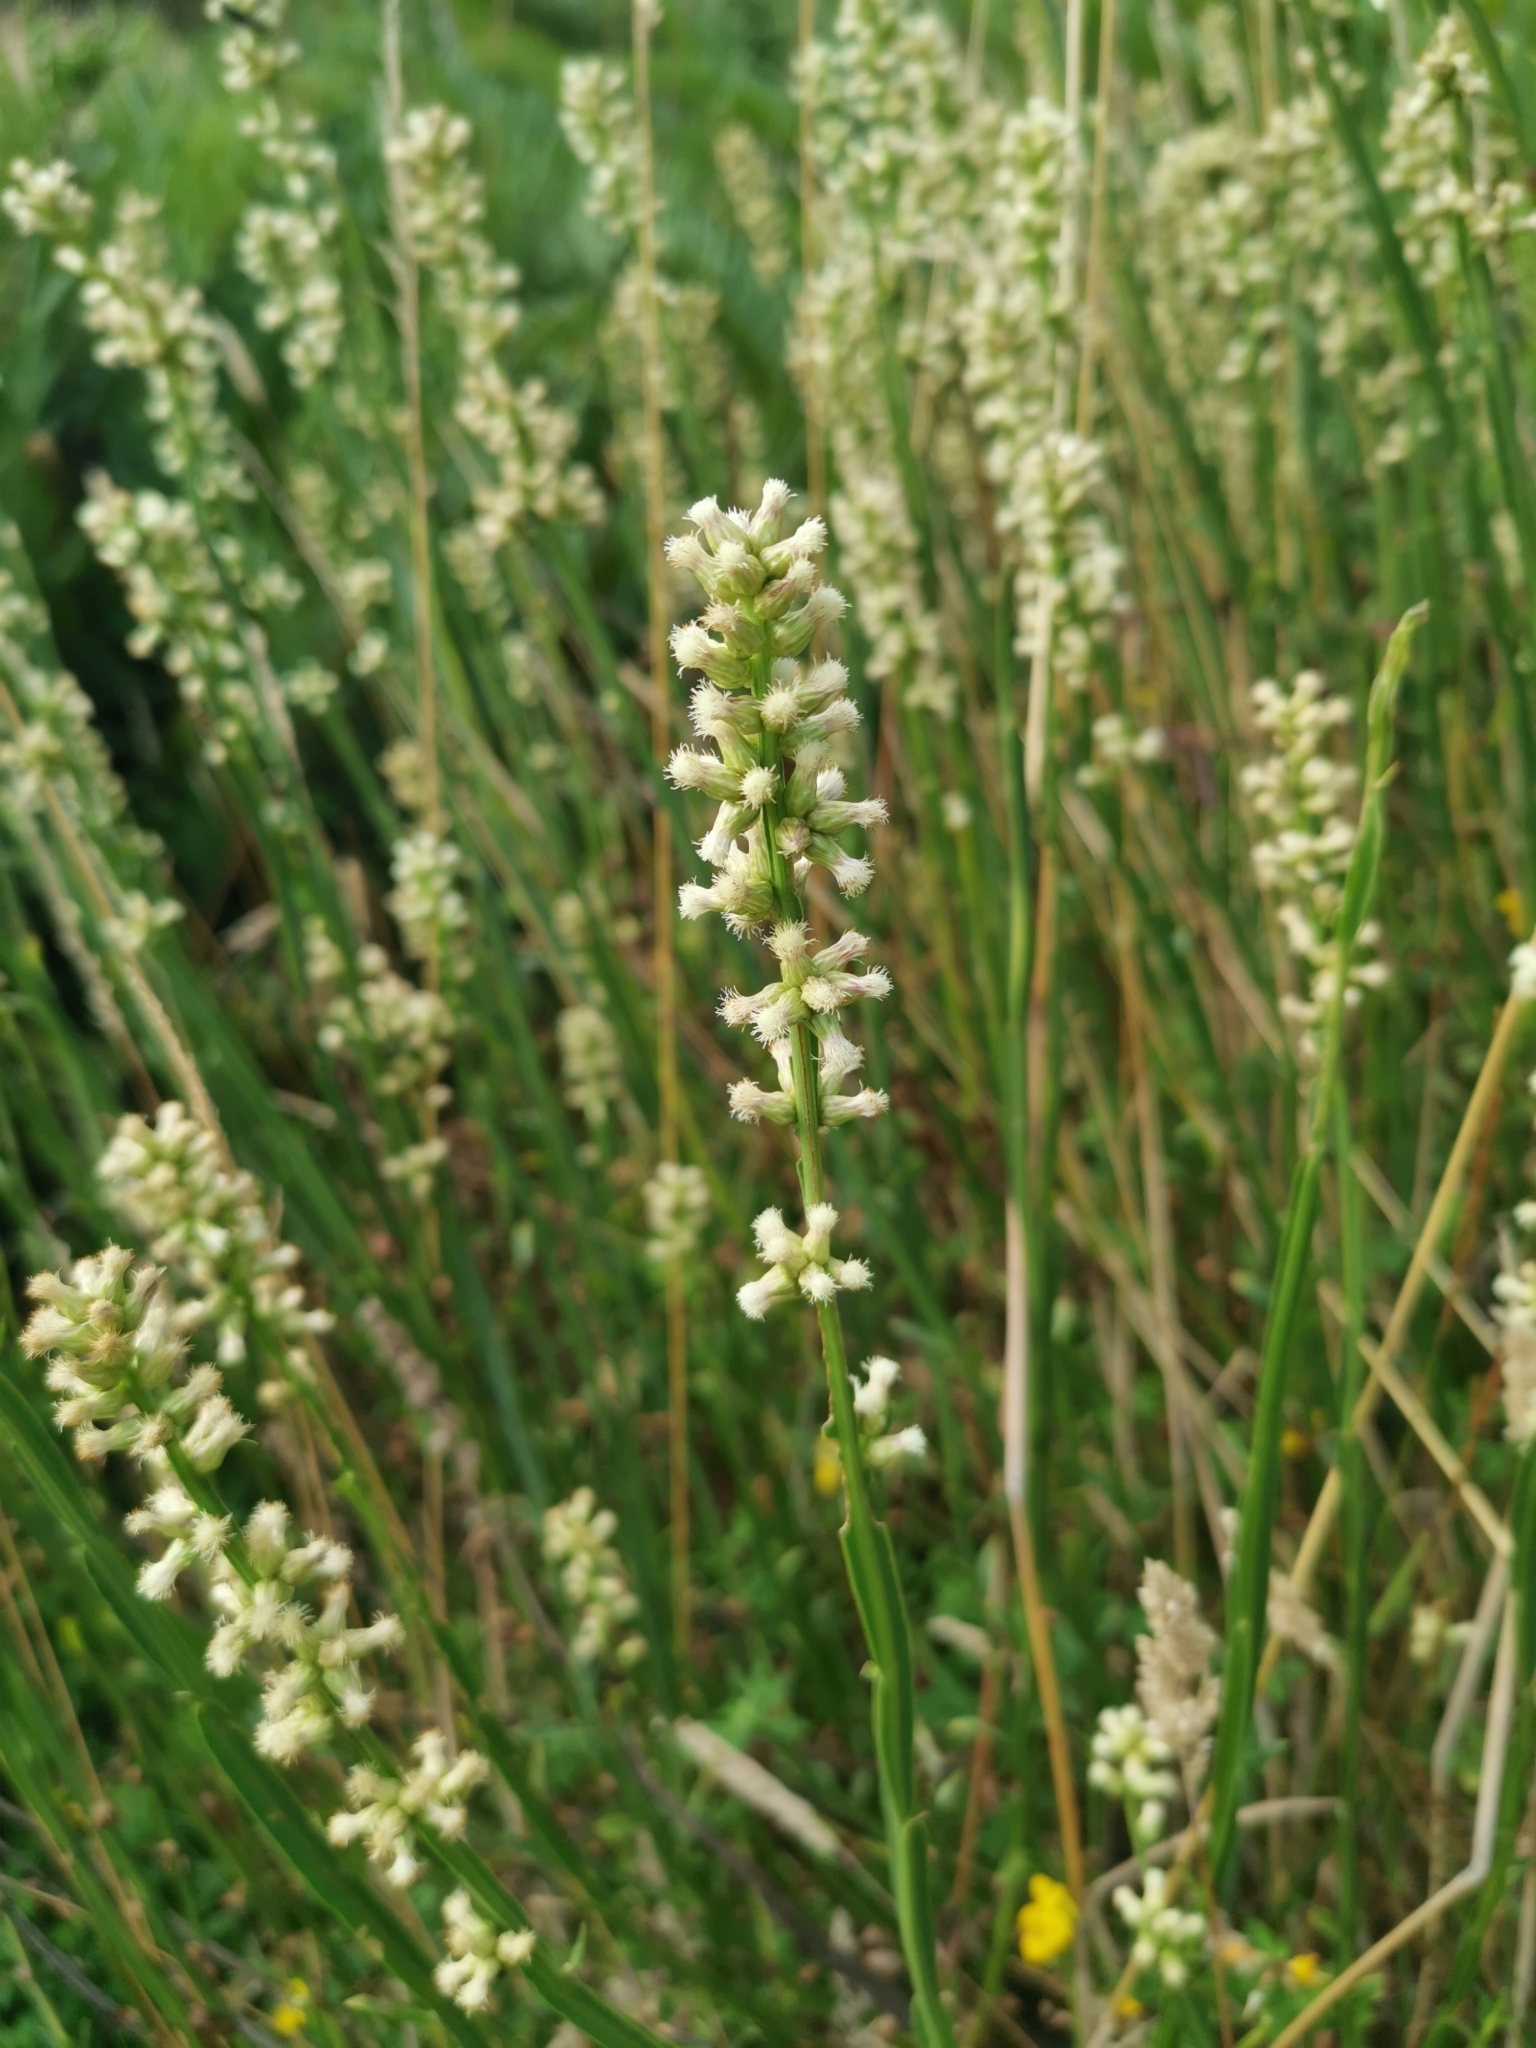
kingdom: Plantae
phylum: Tracheophyta
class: Magnoliopsida
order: Asterales
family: Asteraceae
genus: Baccharis
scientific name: Baccharis sagittalis
